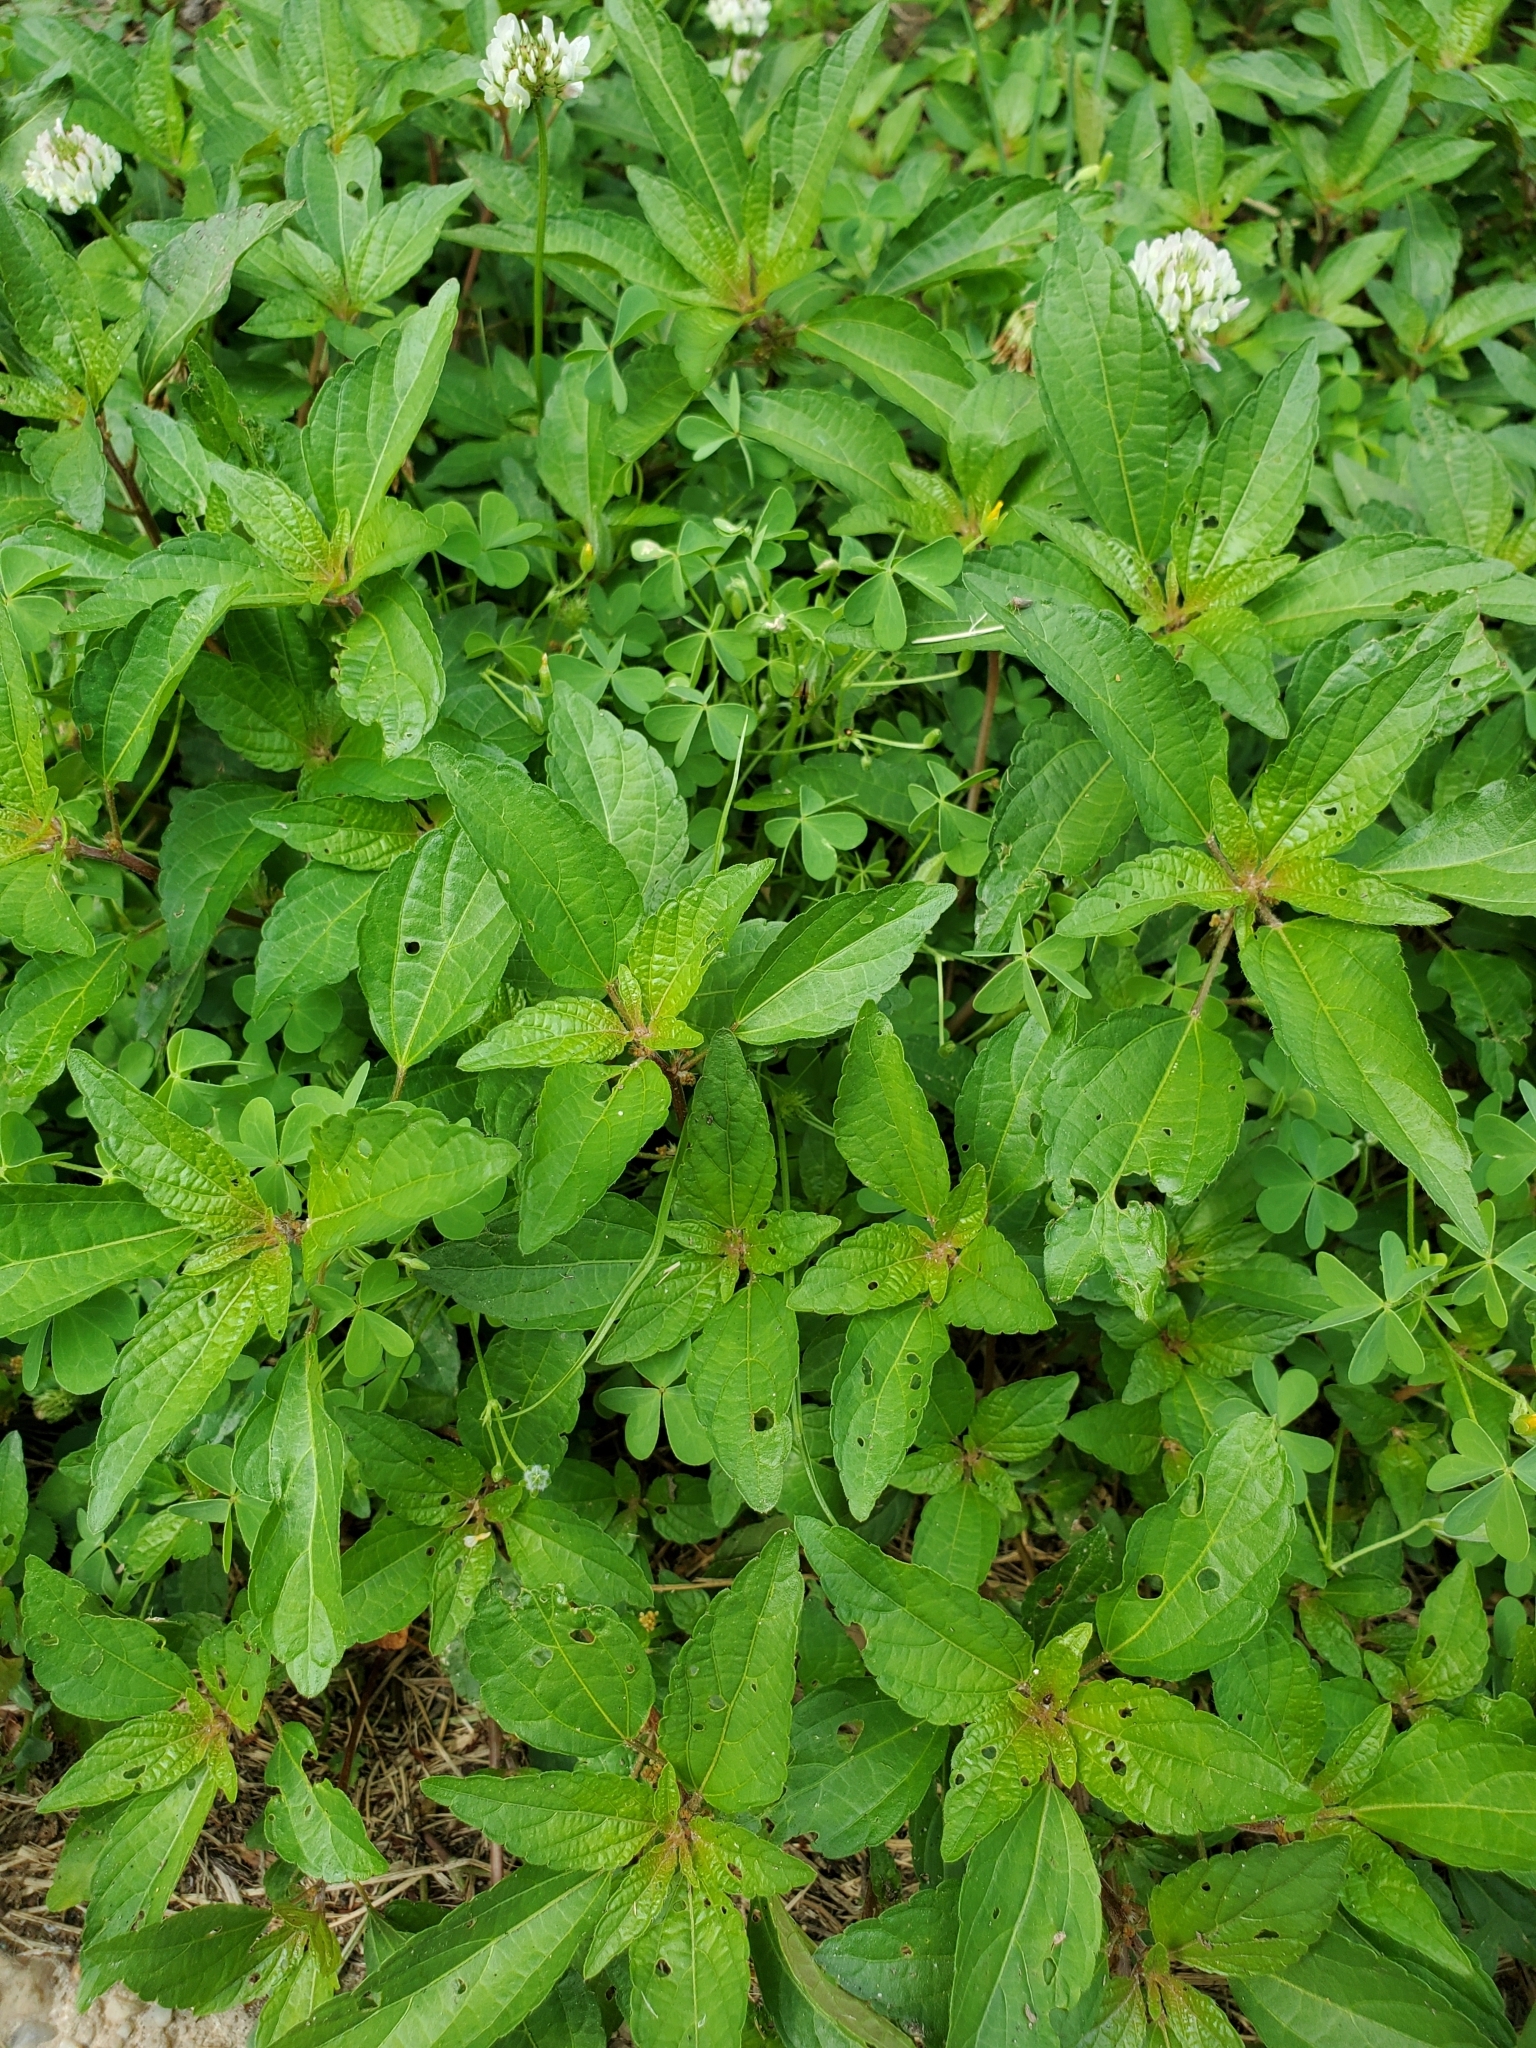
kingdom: Plantae
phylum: Tracheophyta
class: Magnoliopsida
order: Malpighiales
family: Euphorbiaceae
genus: Acalypha
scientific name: Acalypha rhomboidea
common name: Rhombic copperleaf
